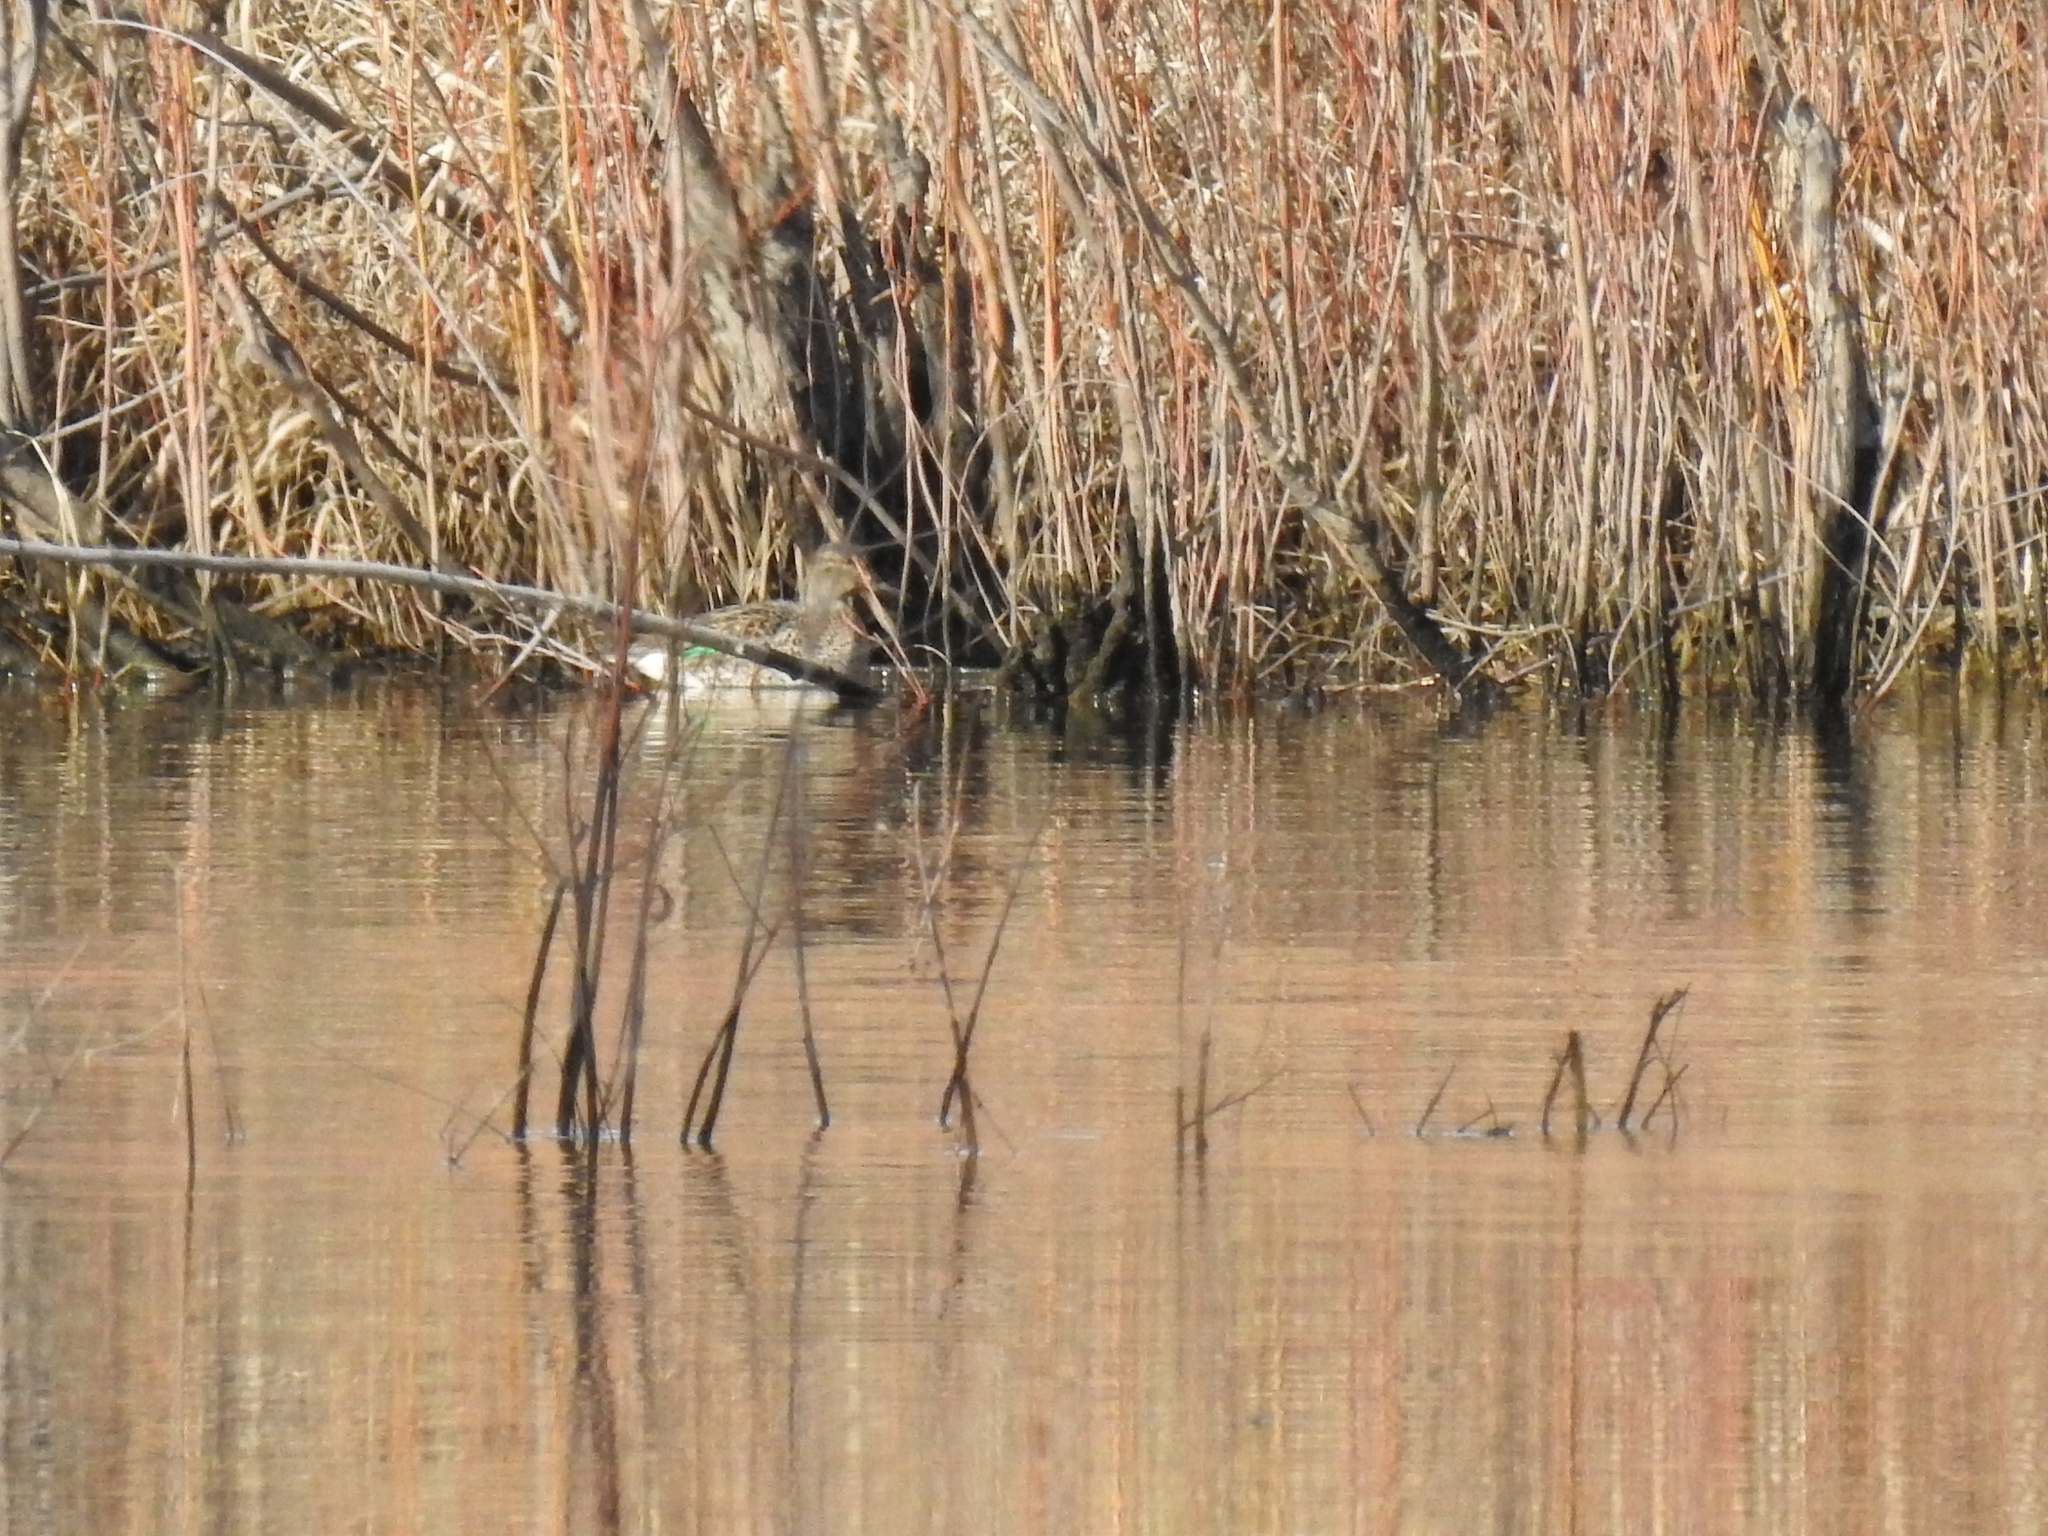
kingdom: Animalia
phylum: Chordata
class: Aves
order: Anseriformes
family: Anatidae
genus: Anas
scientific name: Anas crecca
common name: Eurasian teal
